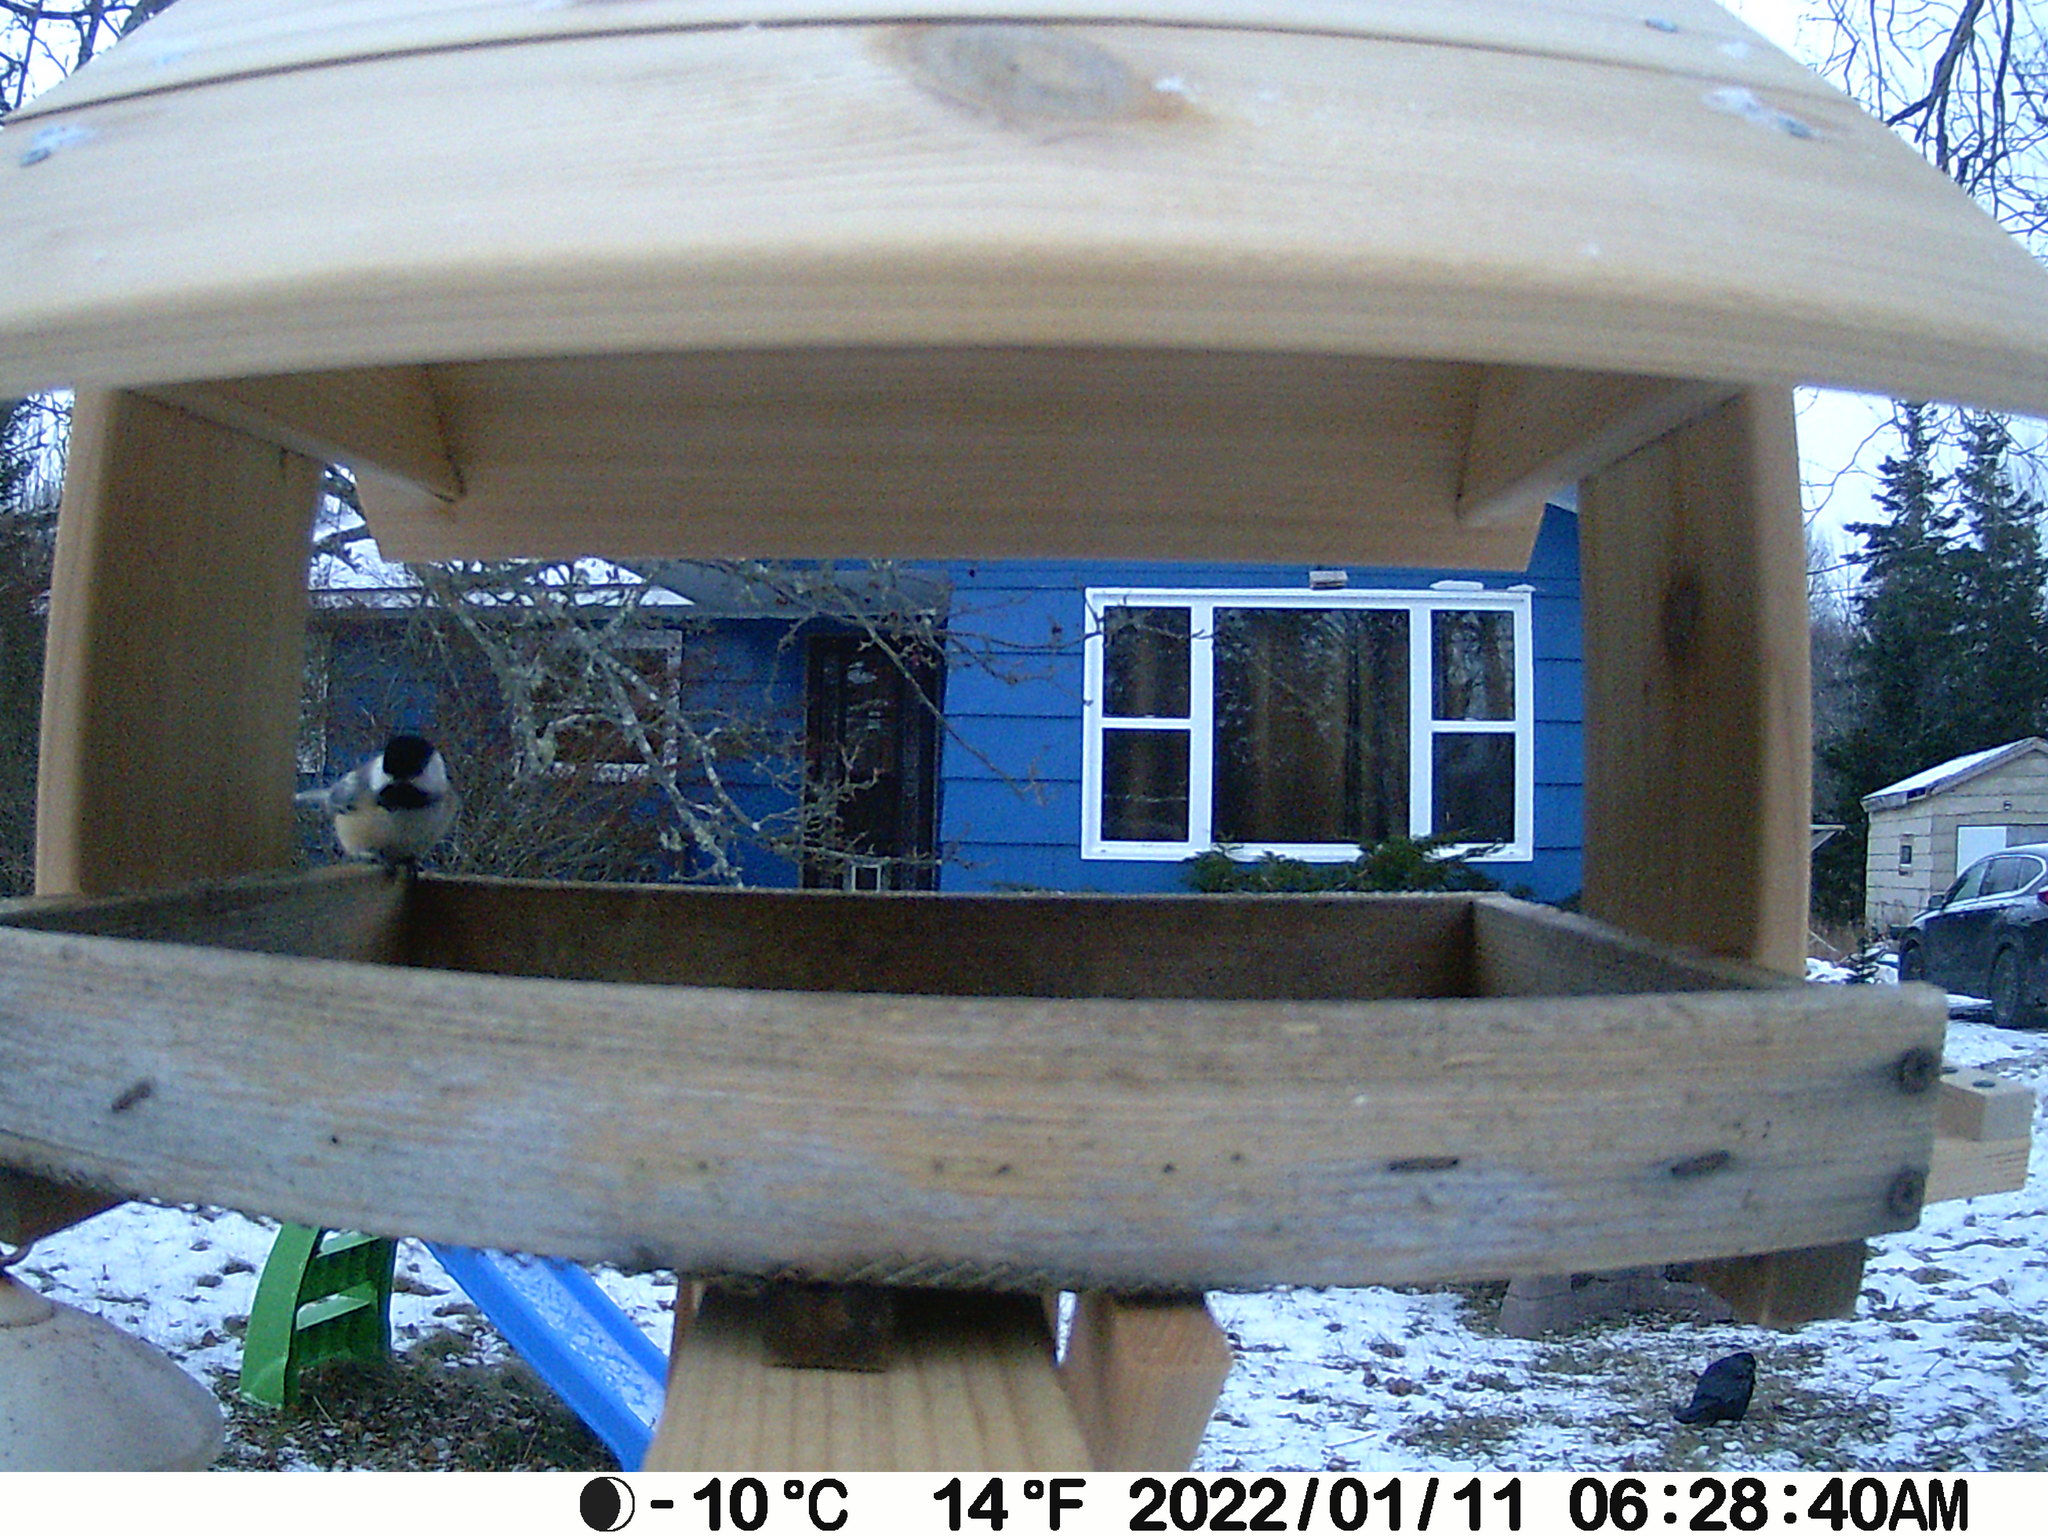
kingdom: Animalia
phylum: Chordata
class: Aves
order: Passeriformes
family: Paridae
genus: Poecile
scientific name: Poecile atricapillus
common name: Black-capped chickadee
